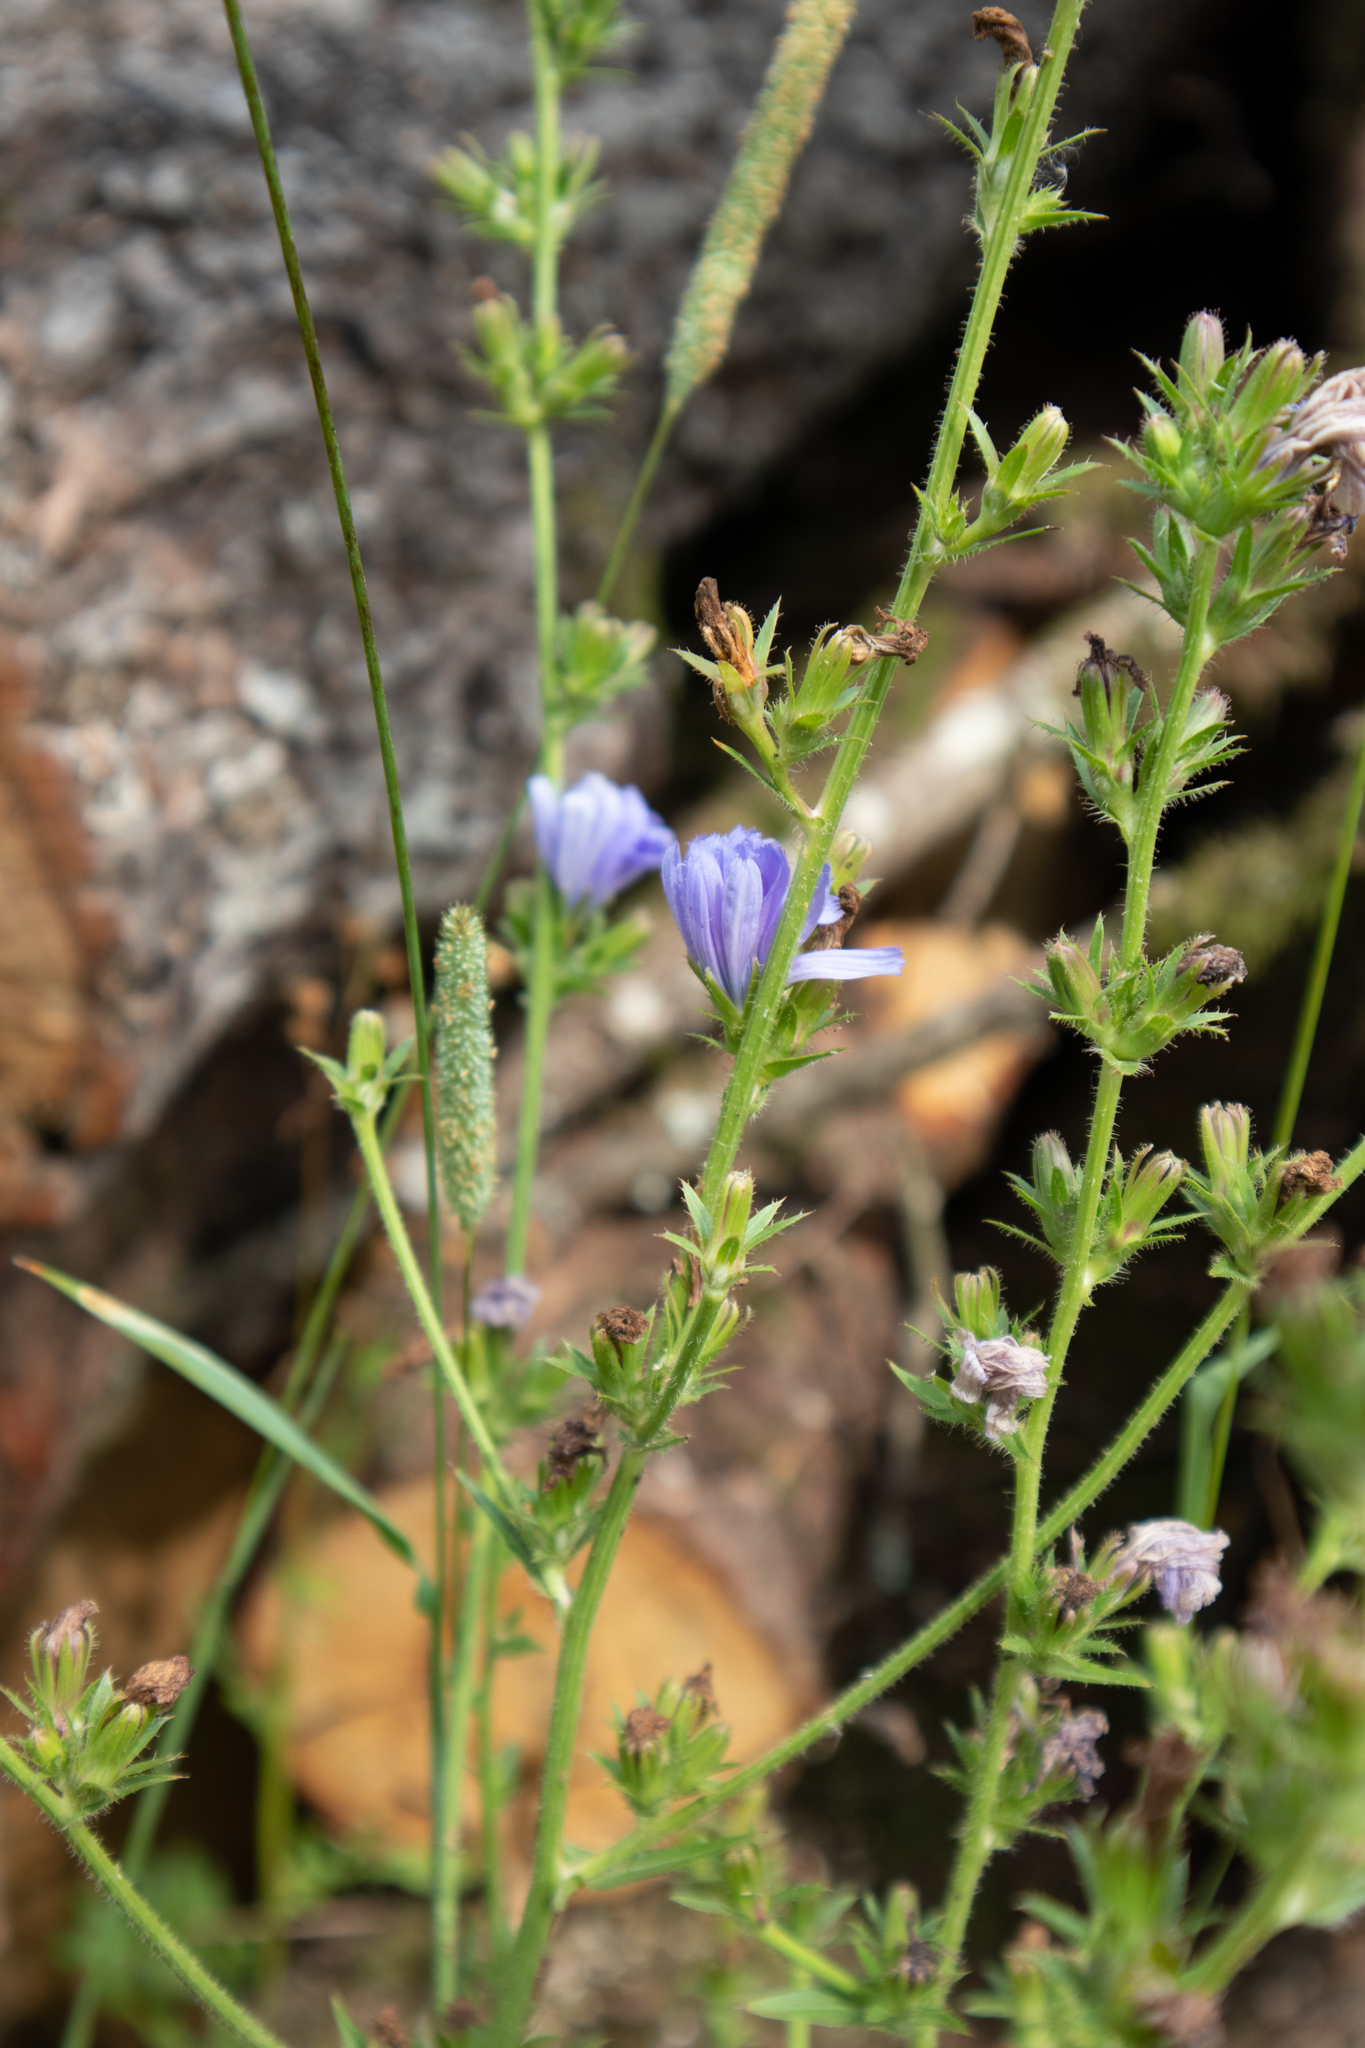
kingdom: Plantae
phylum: Tracheophyta
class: Magnoliopsida
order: Asterales
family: Asteraceae
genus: Cichorium
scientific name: Cichorium intybus
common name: Chicory
